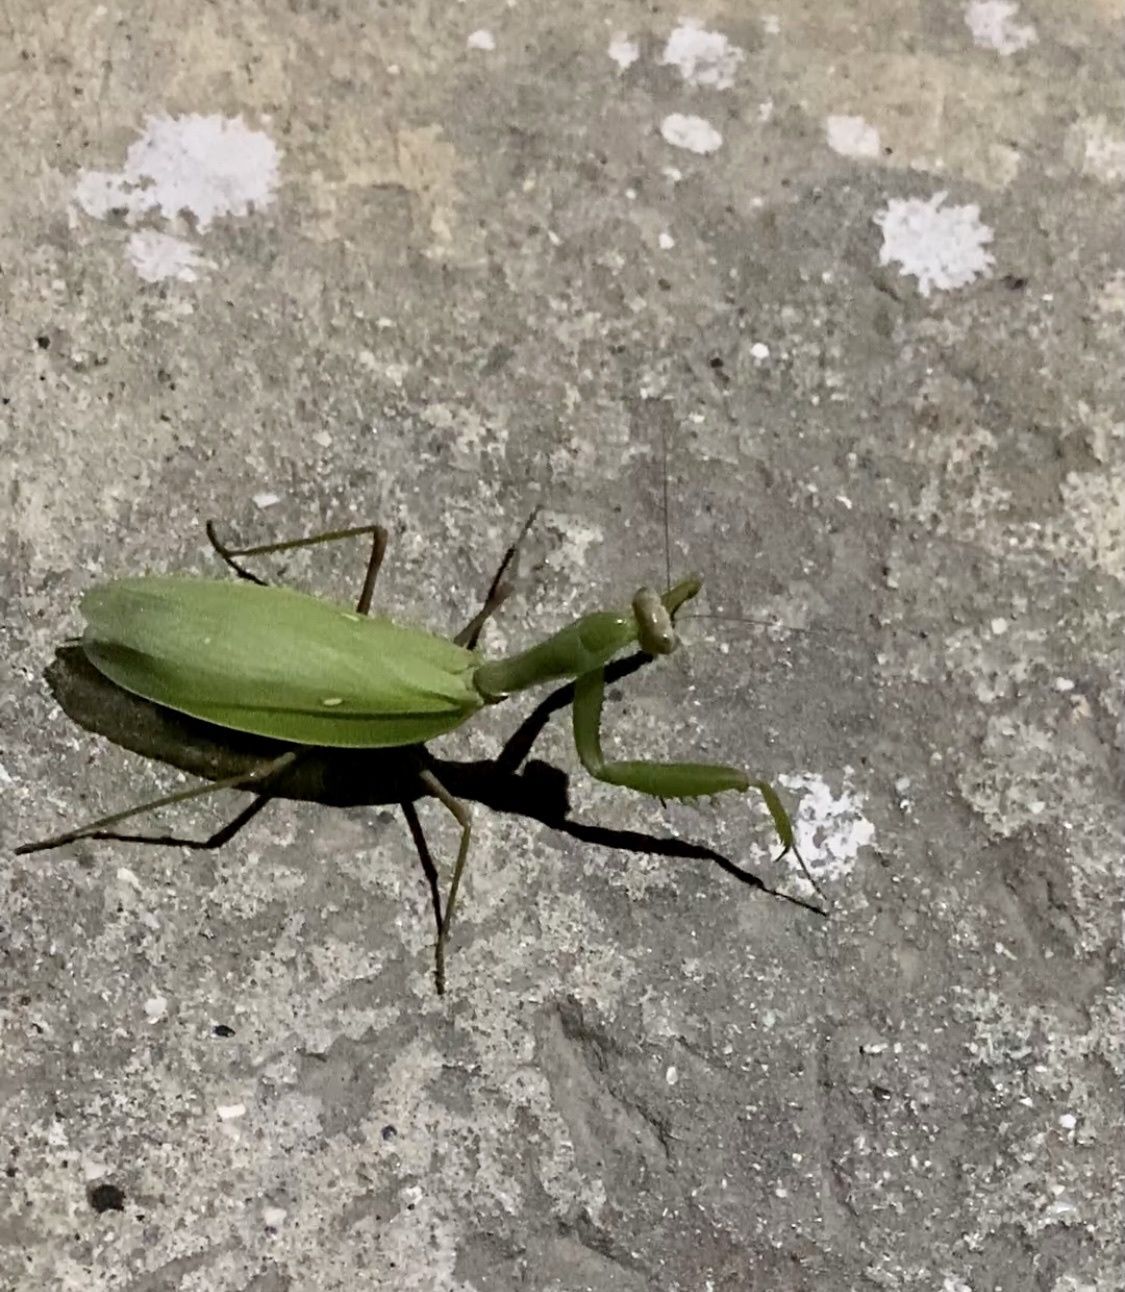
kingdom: Animalia
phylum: Arthropoda
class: Insecta
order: Mantodea
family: Mantidae
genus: Hierodula
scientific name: Hierodula transcaucasica
